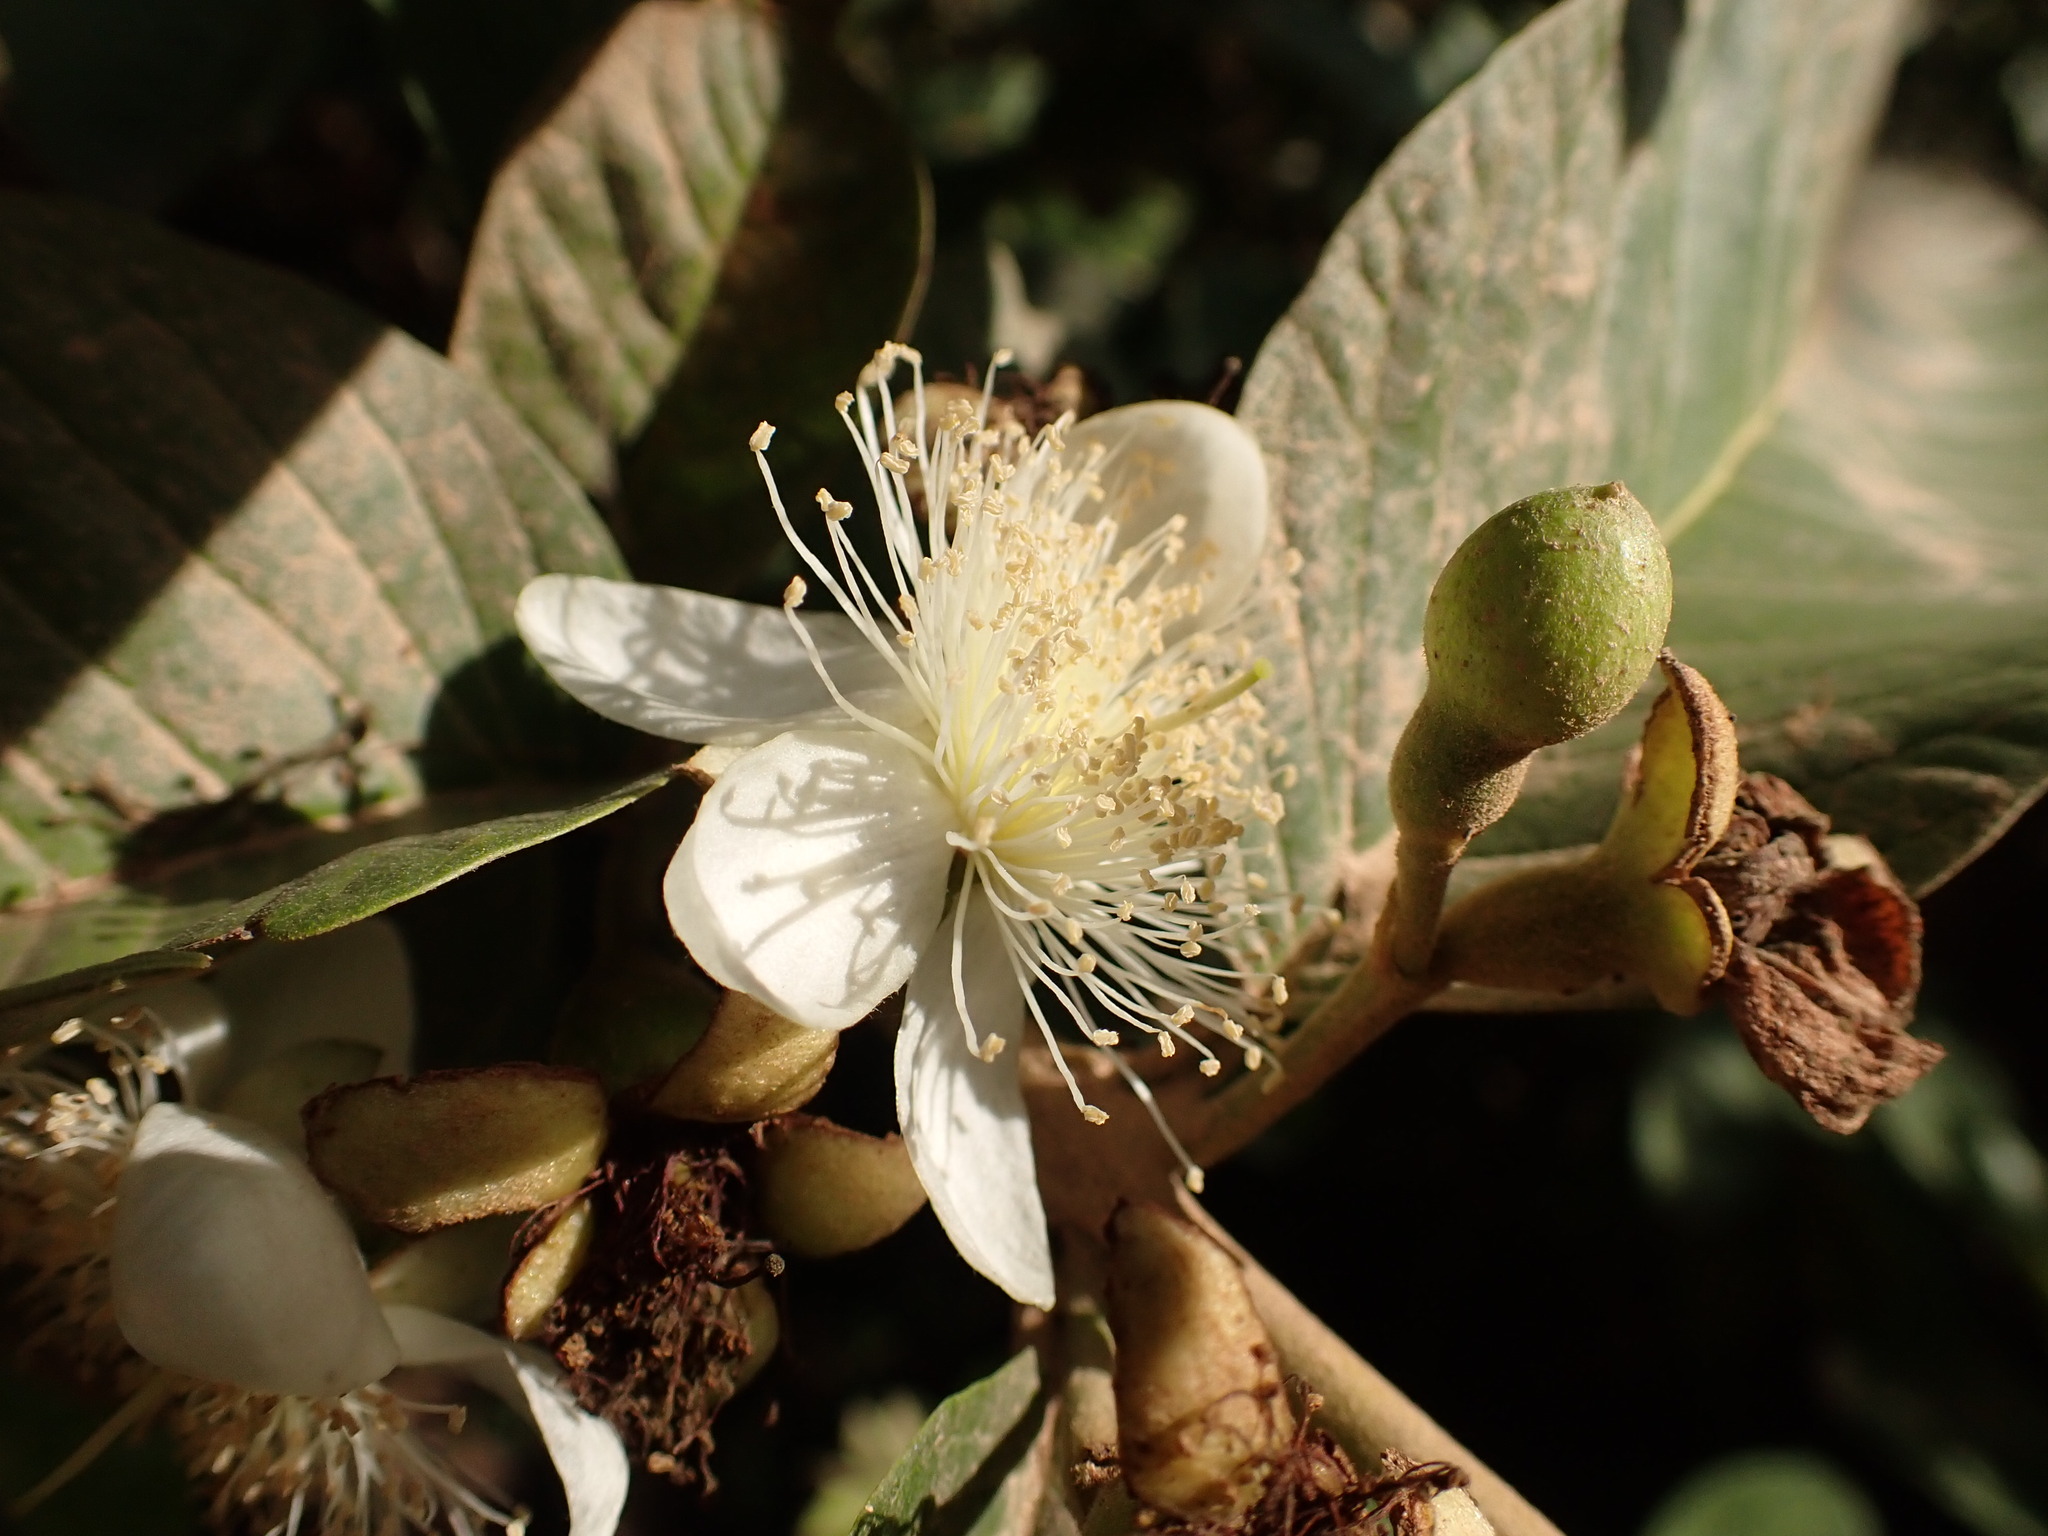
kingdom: Plantae
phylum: Tracheophyta
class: Magnoliopsida
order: Myrtales
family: Myrtaceae
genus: Psidium
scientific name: Psidium guajava
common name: Guava
